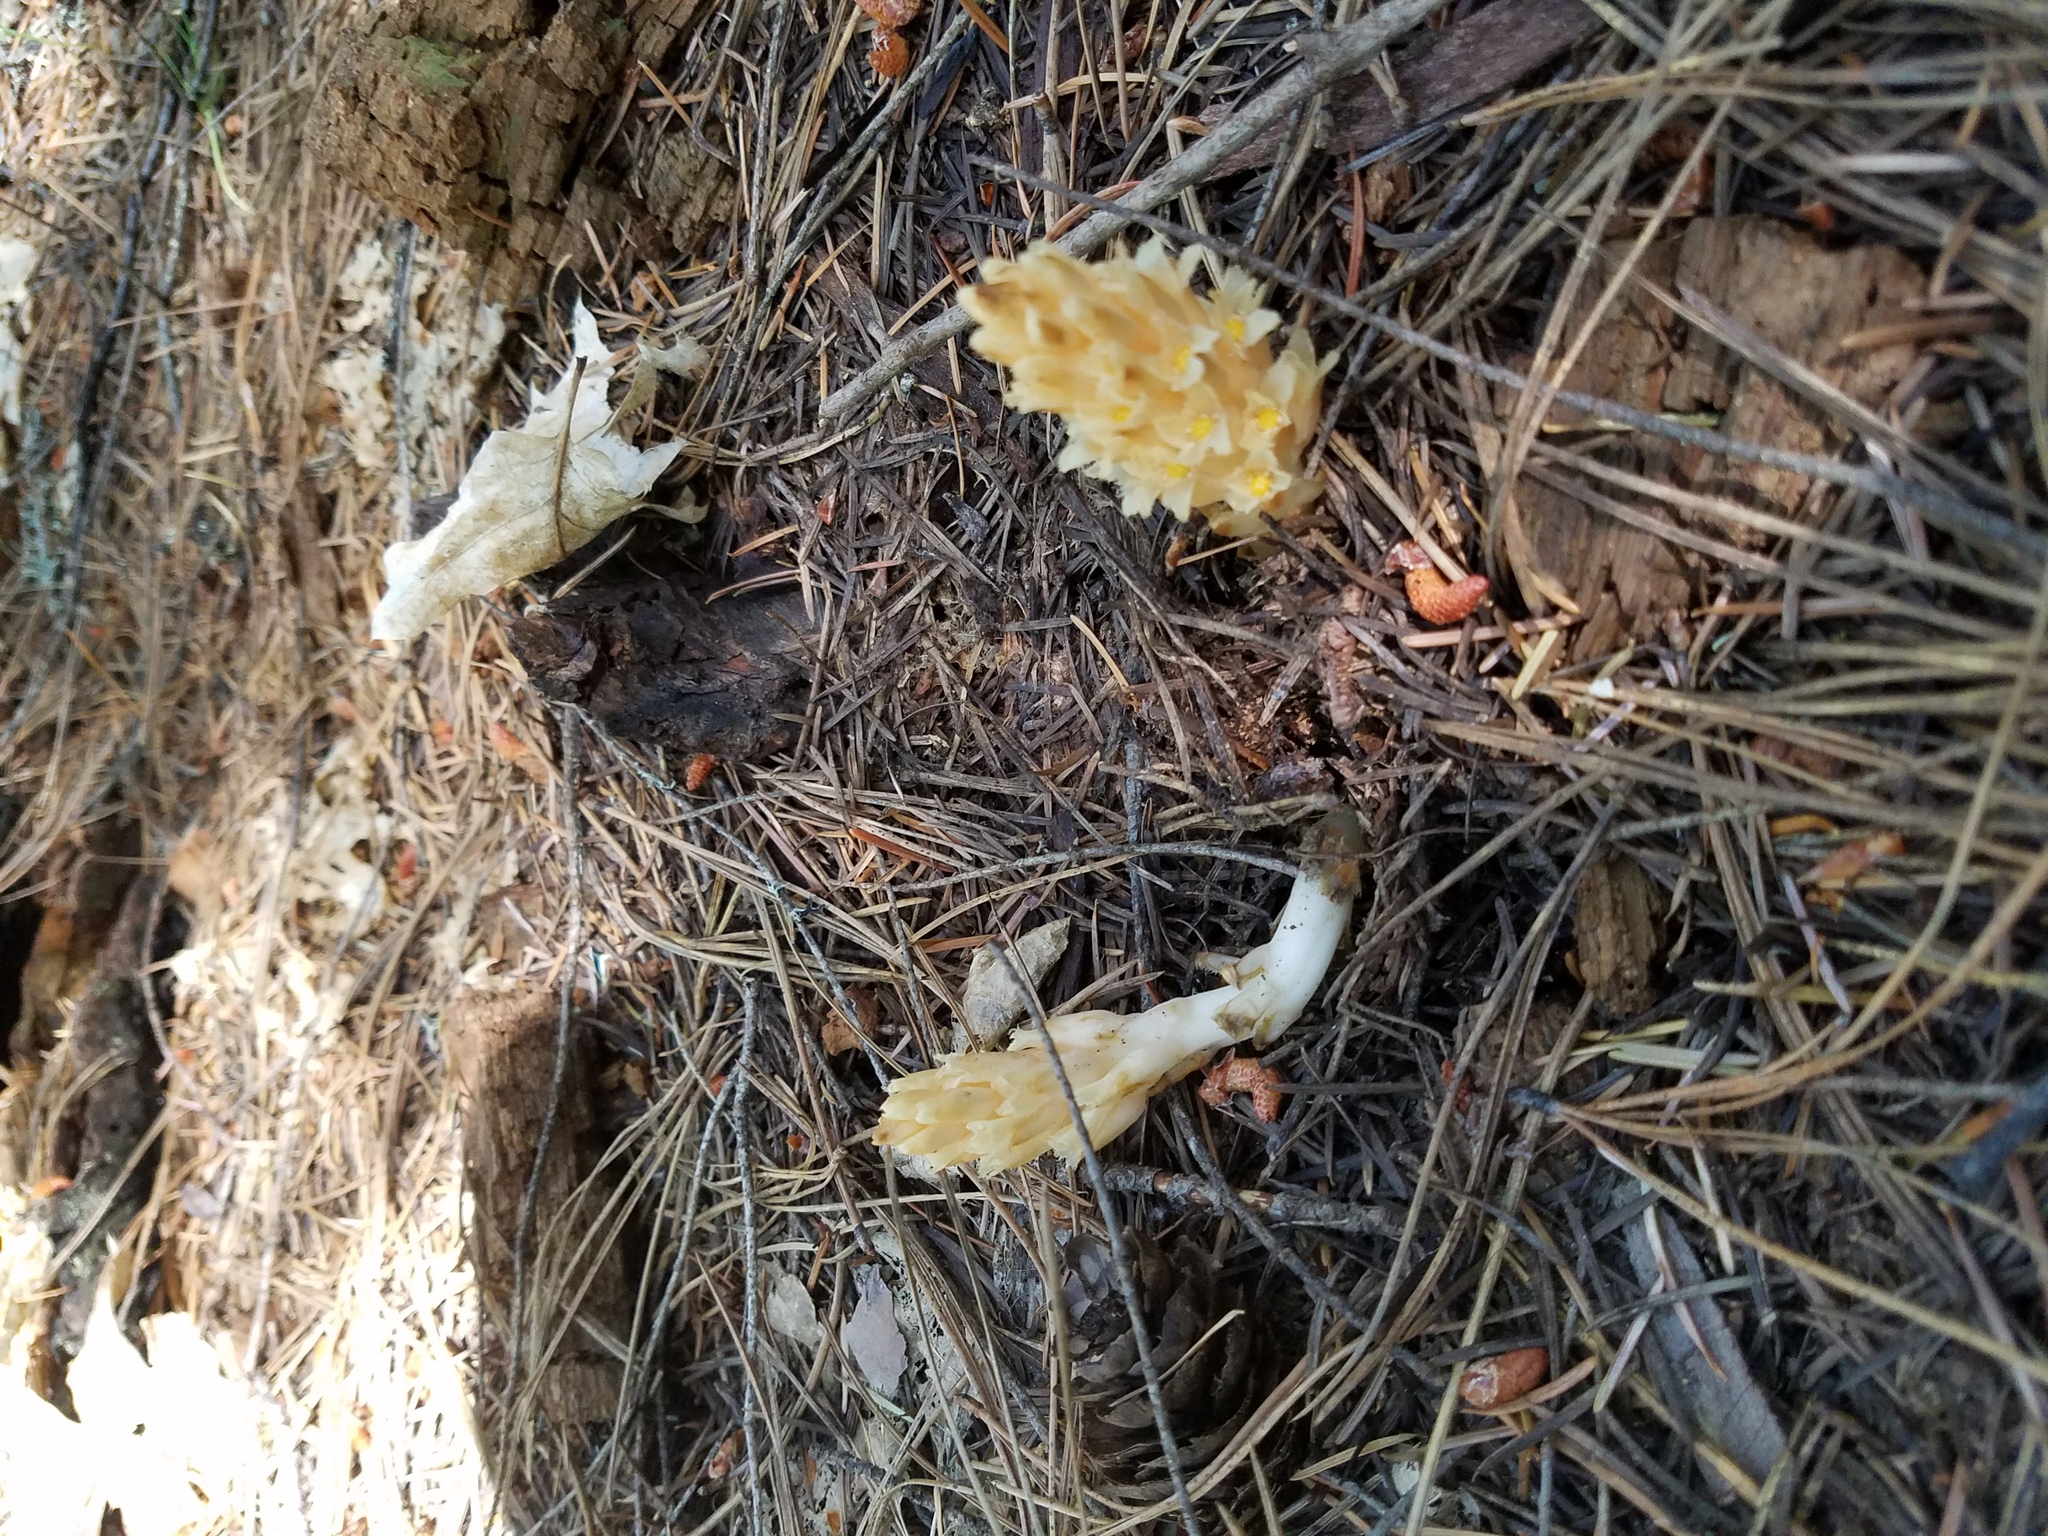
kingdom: Plantae
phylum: Tracheophyta
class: Magnoliopsida
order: Ericales
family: Ericaceae
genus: Pleuricospora
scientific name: Pleuricospora fimbriolata
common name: Fringed pinesap
